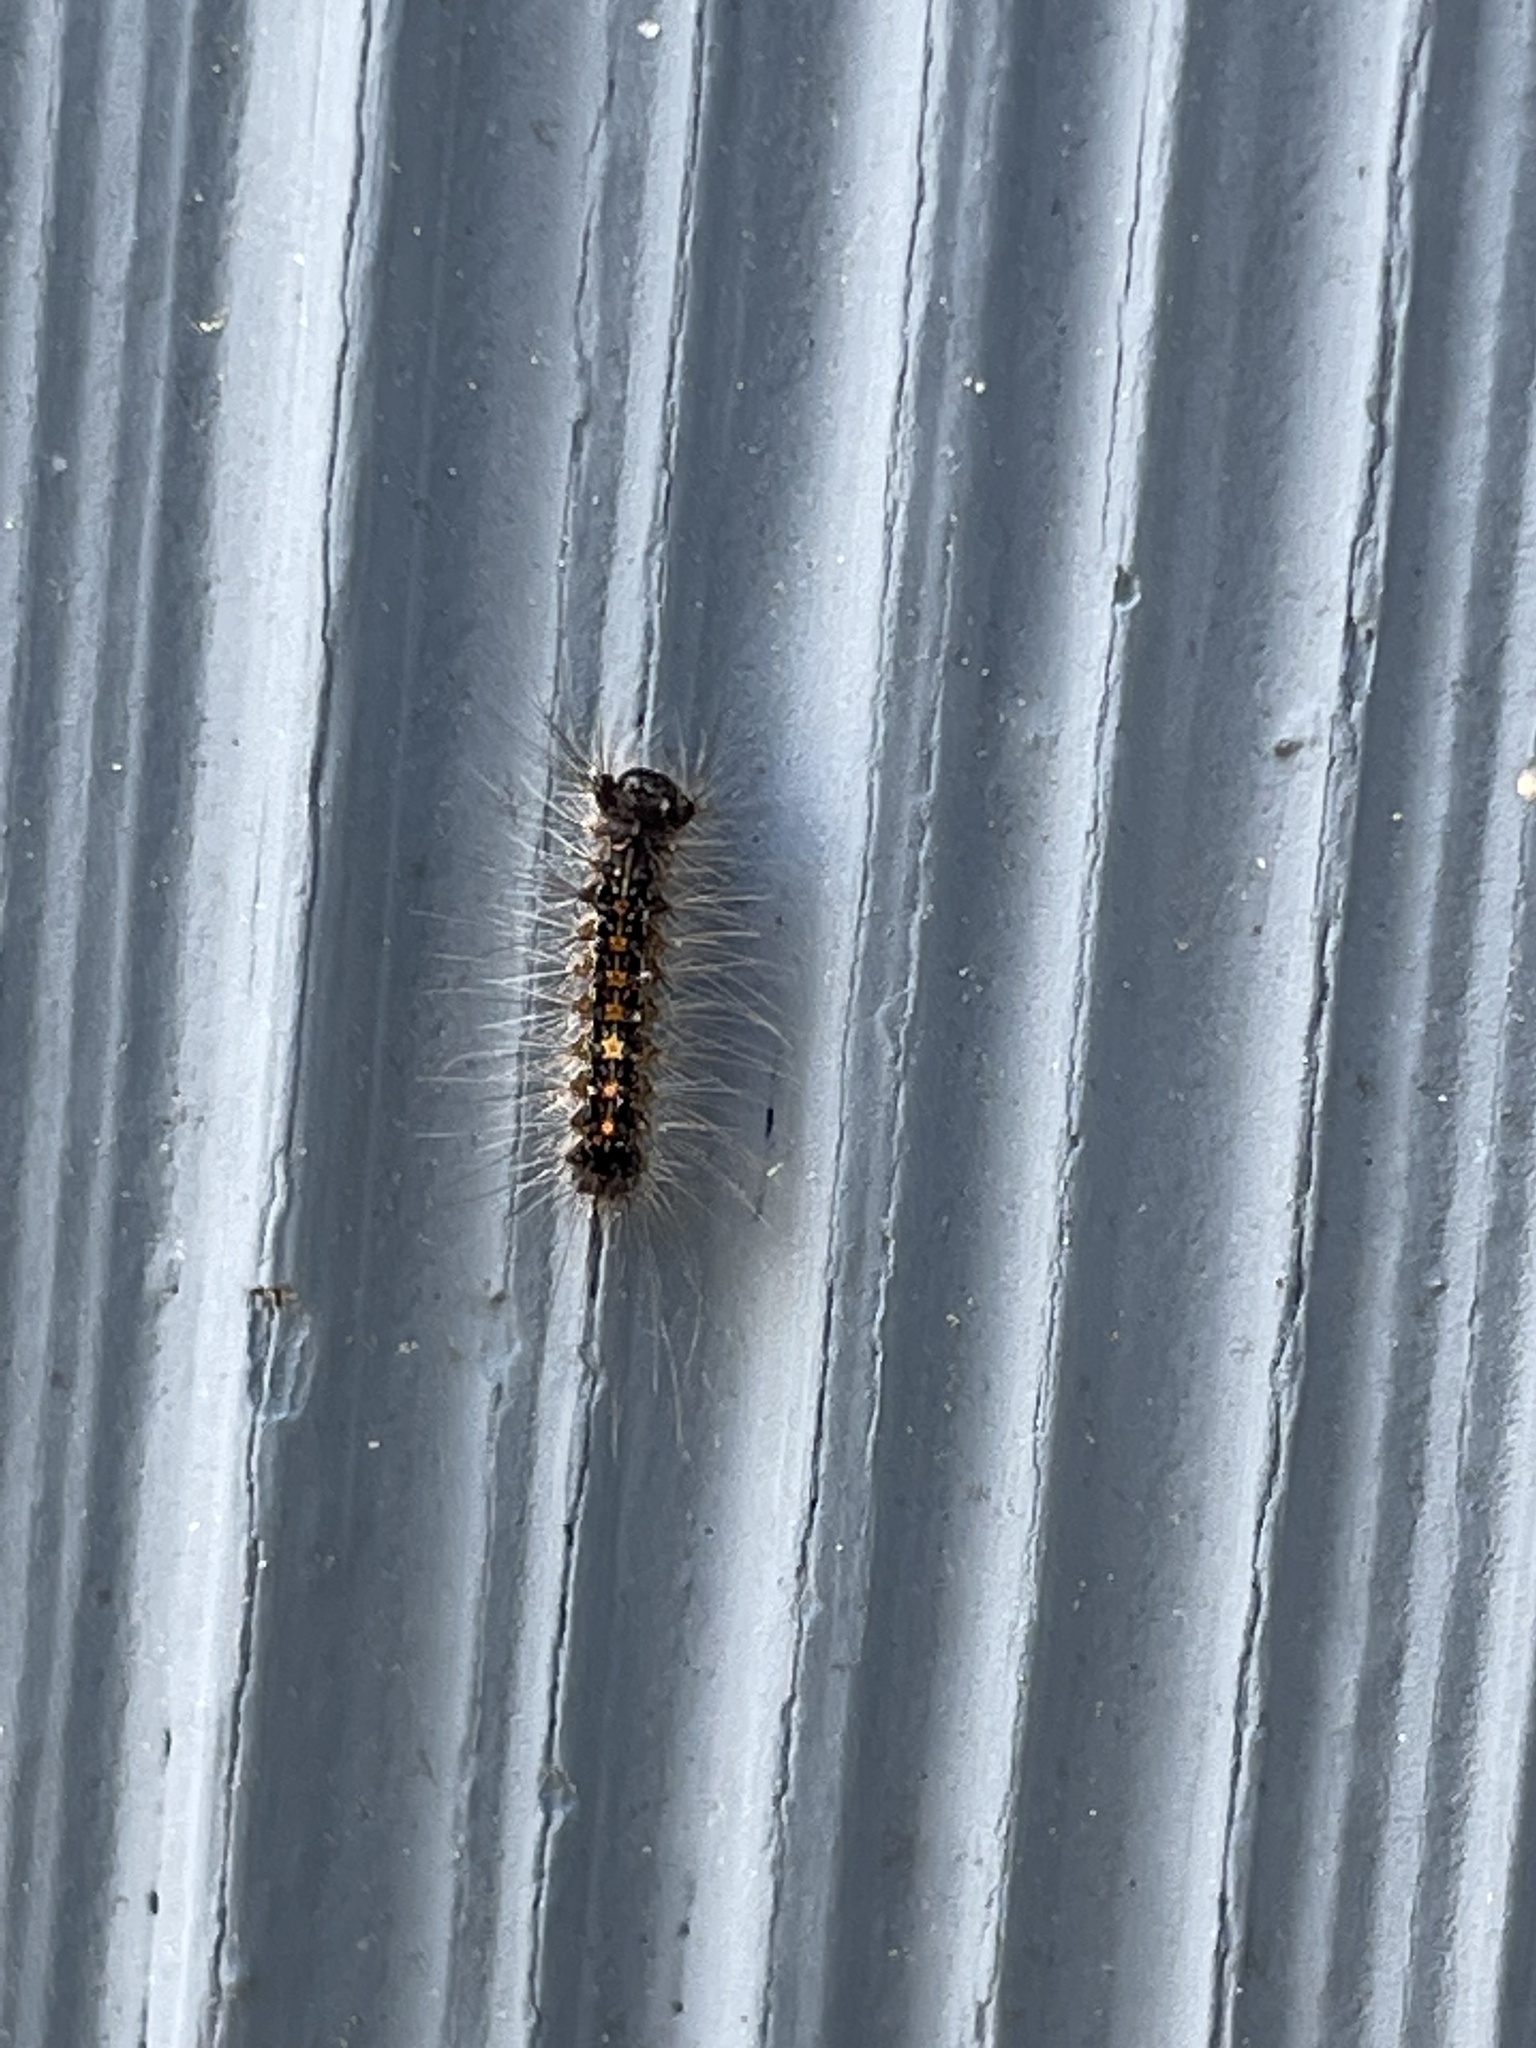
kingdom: Animalia
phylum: Arthropoda
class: Insecta
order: Lepidoptera
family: Erebidae
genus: Lymantria
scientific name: Lymantria dispar
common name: Gypsy moth
